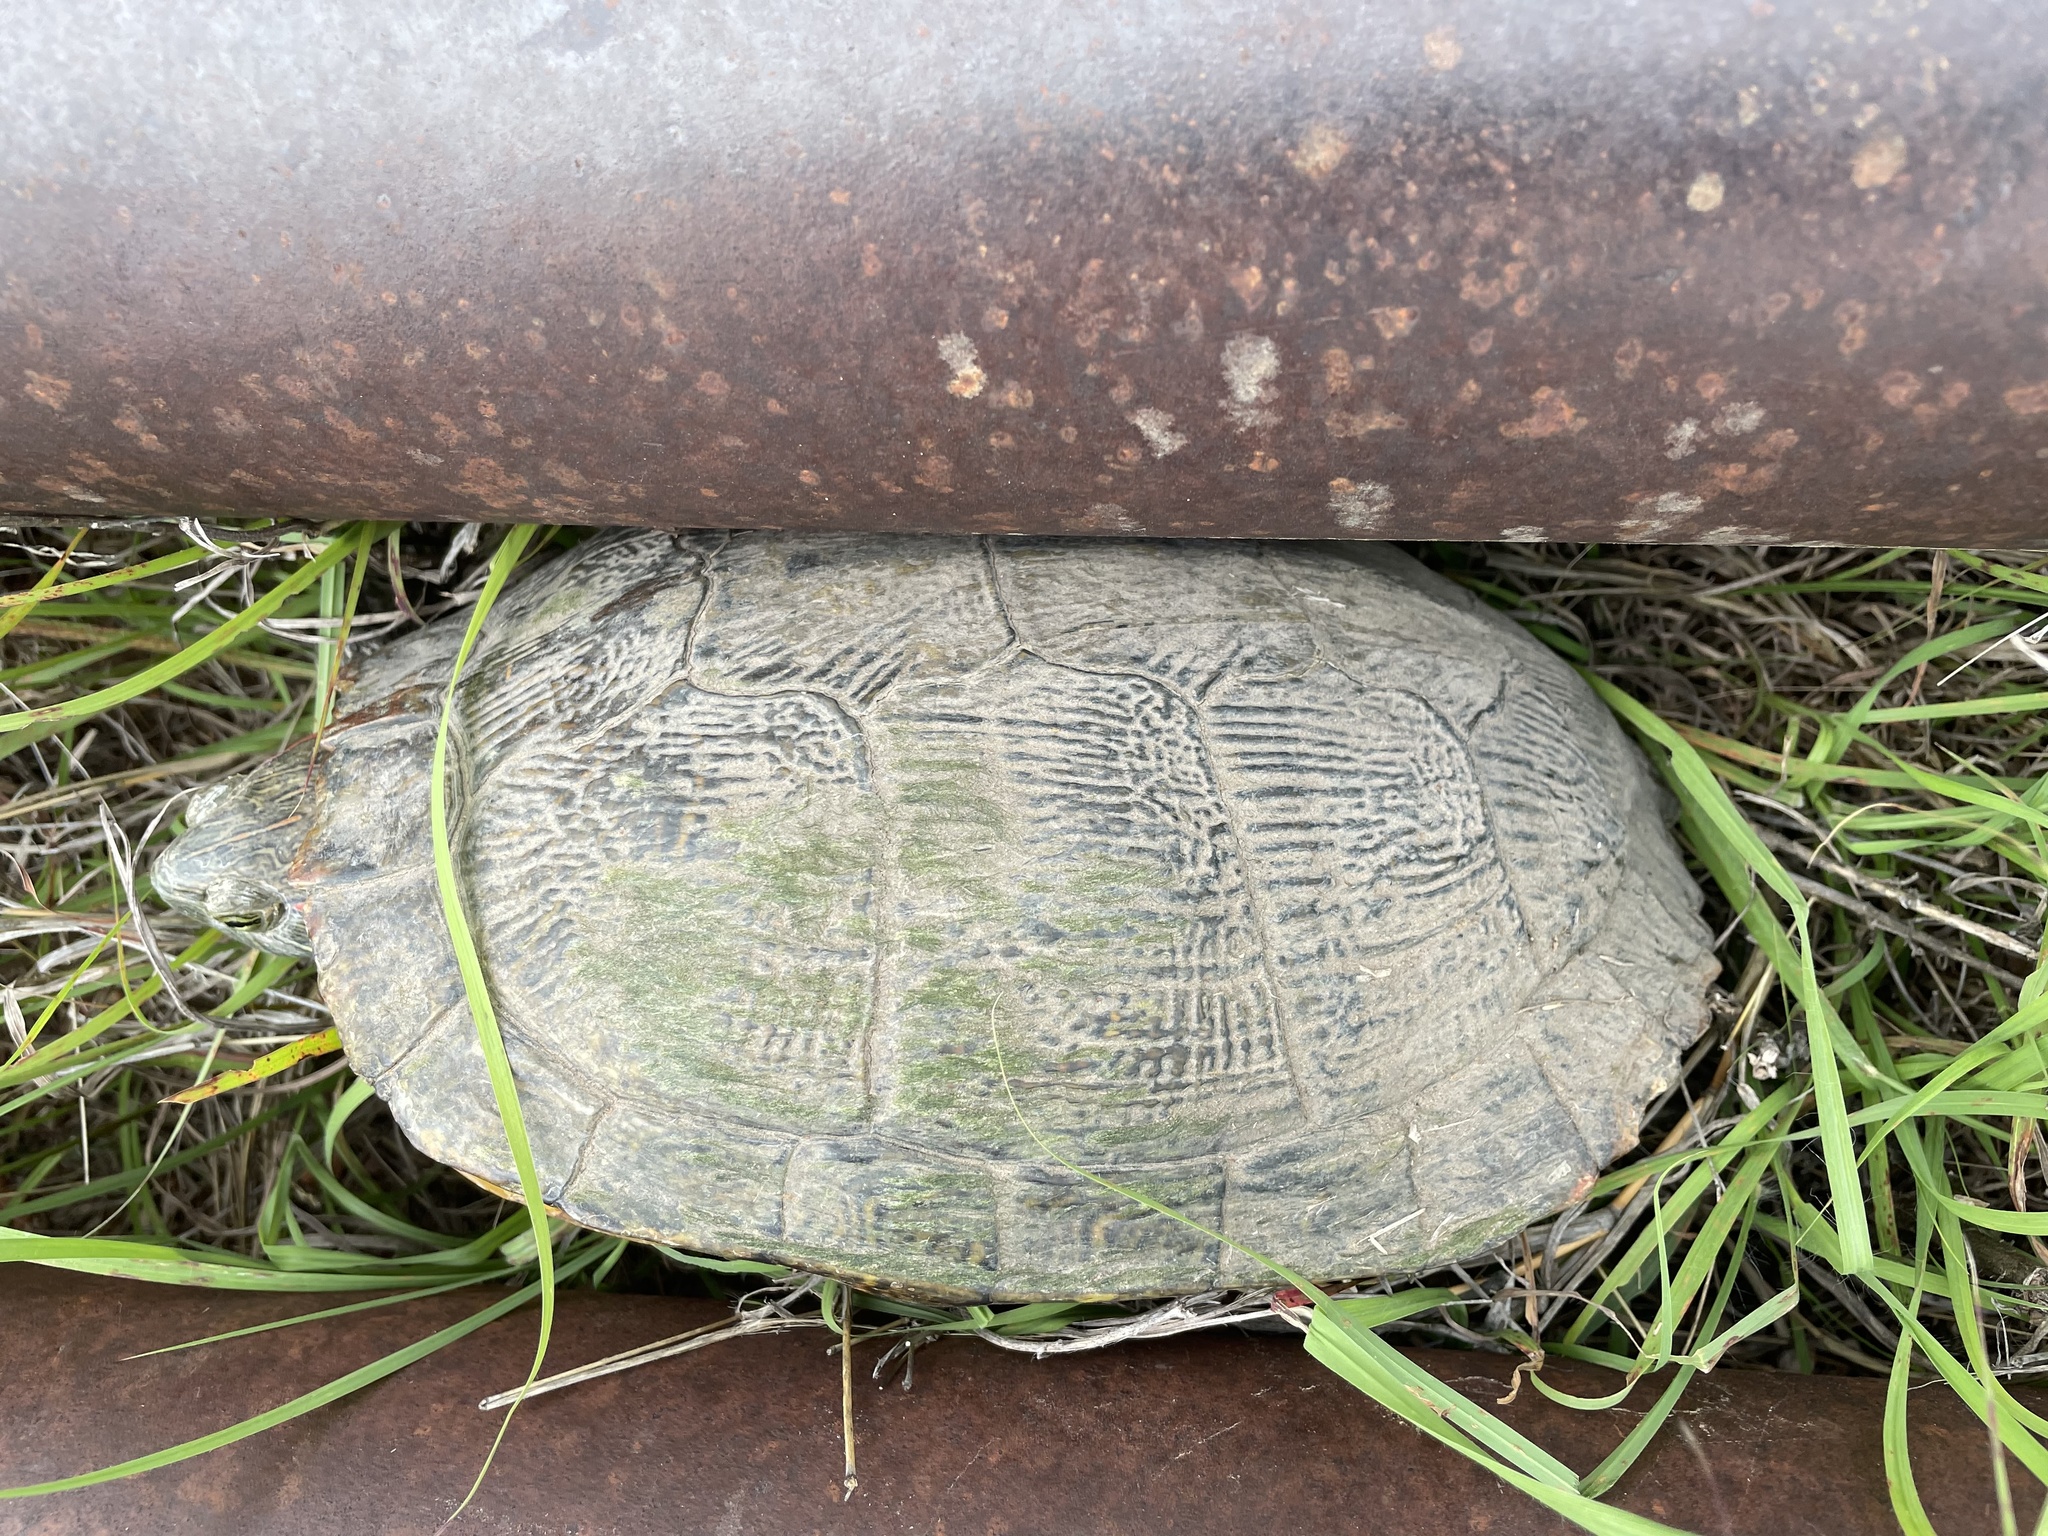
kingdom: Animalia
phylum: Chordata
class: Testudines
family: Emydidae
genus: Trachemys
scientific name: Trachemys scripta
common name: Slider
